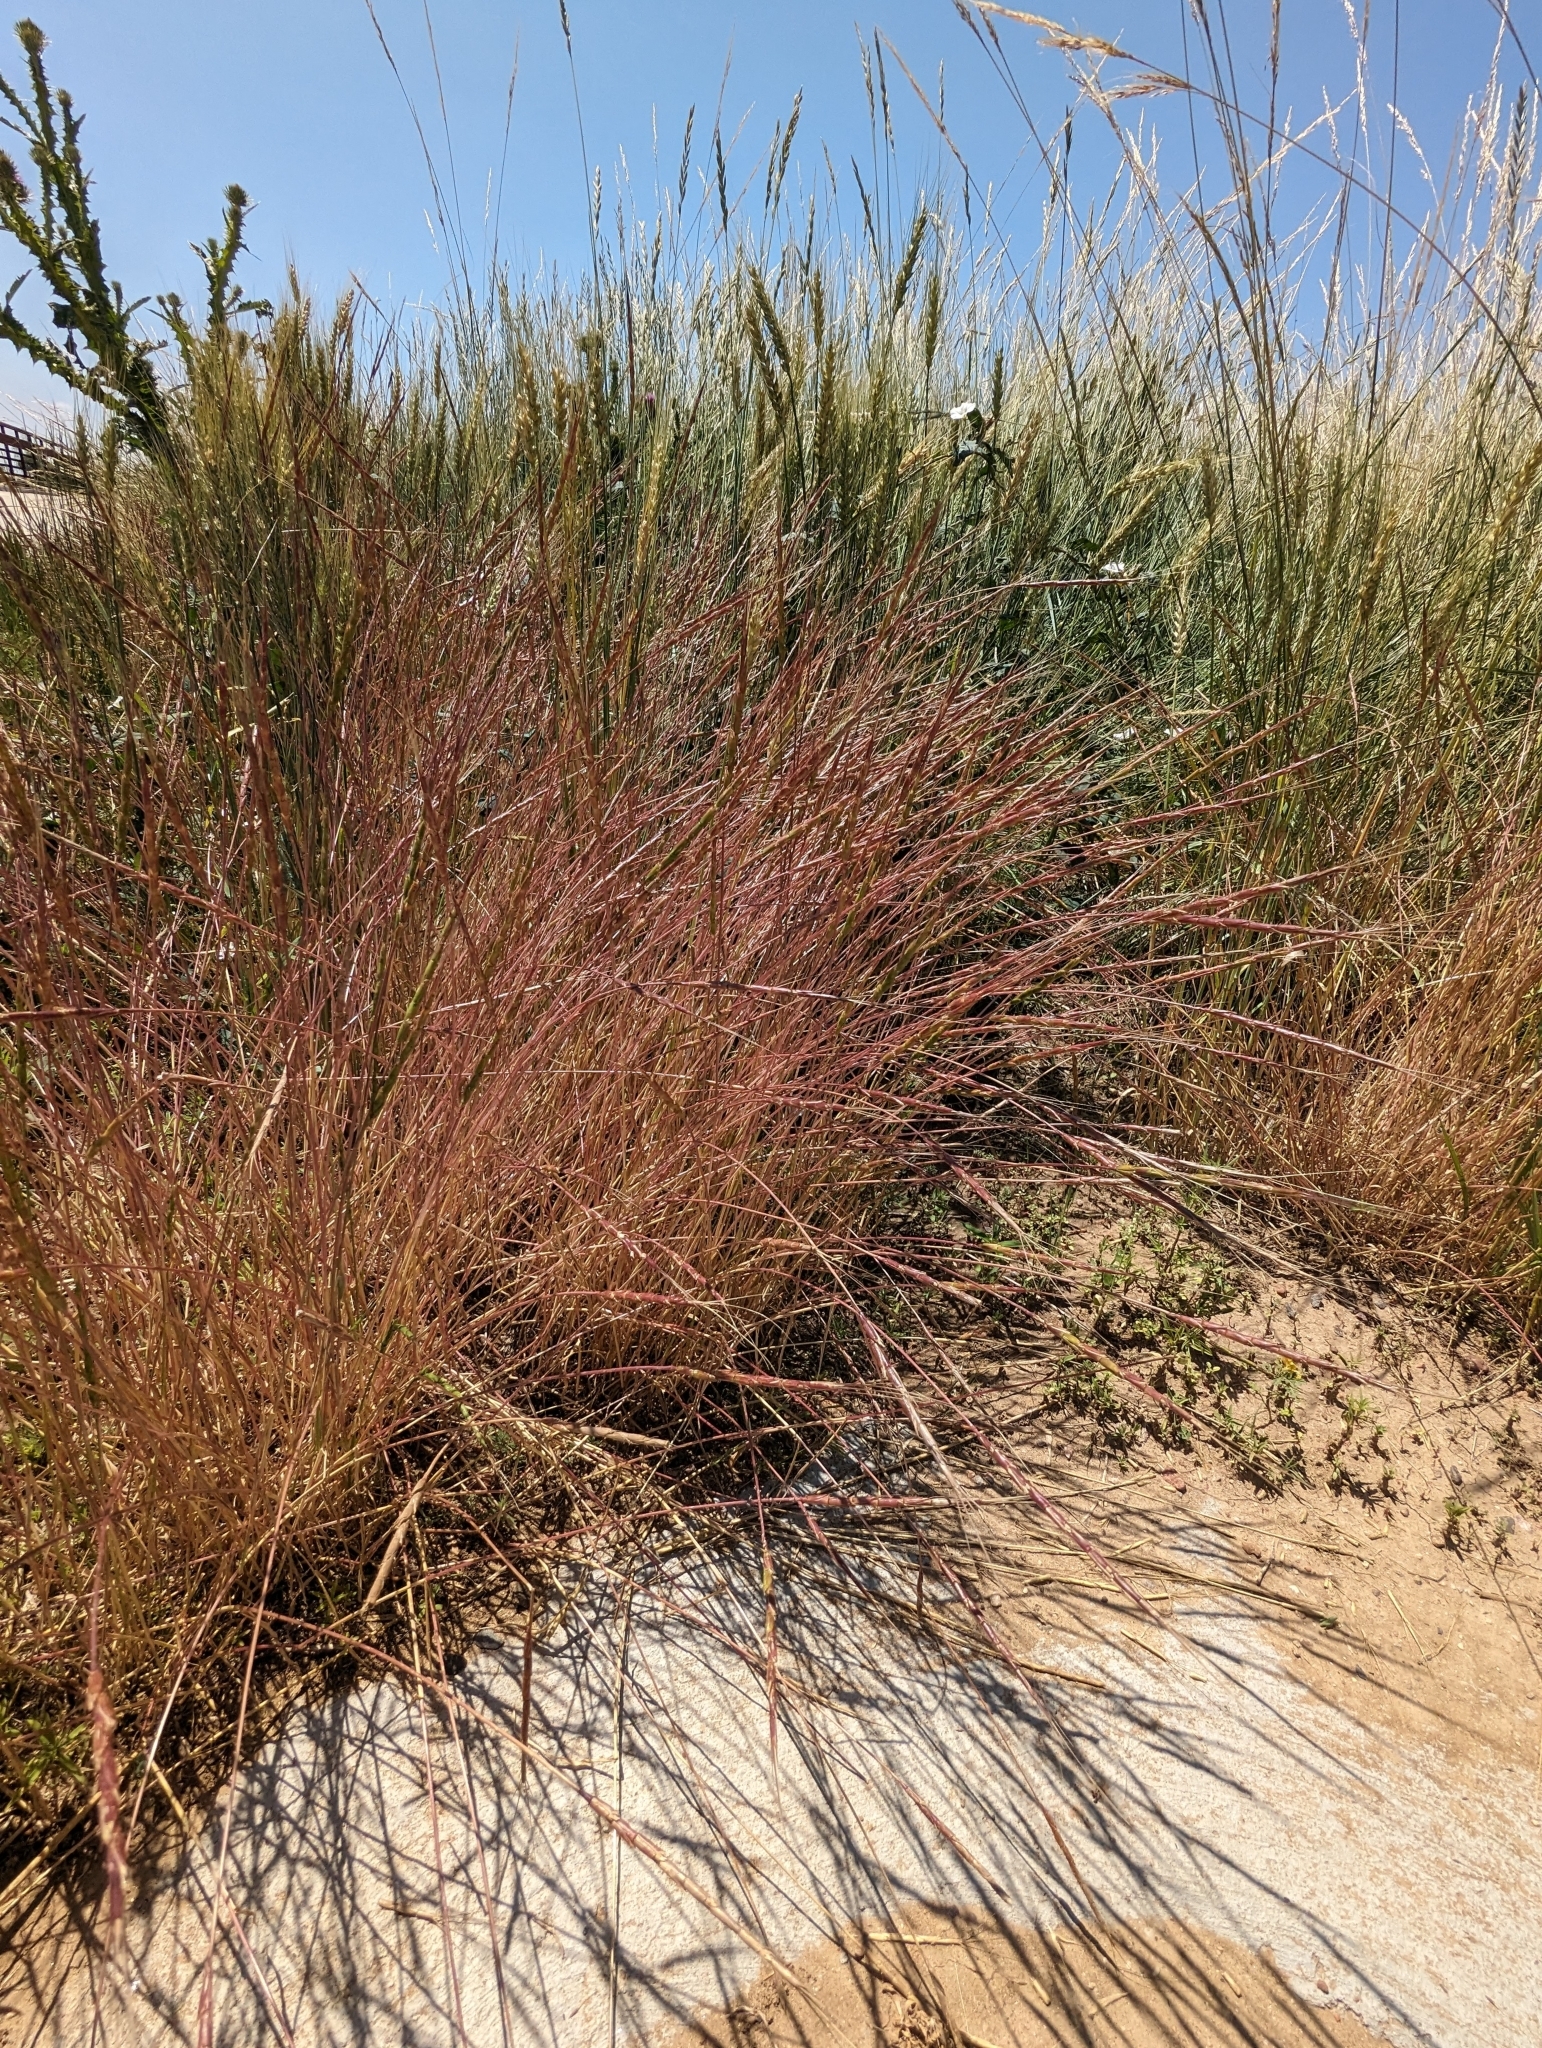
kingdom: Plantae
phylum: Tracheophyta
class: Liliopsida
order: Poales
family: Poaceae
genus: Aegilops
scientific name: Aegilops cylindrica
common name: Jointed goatgrass
